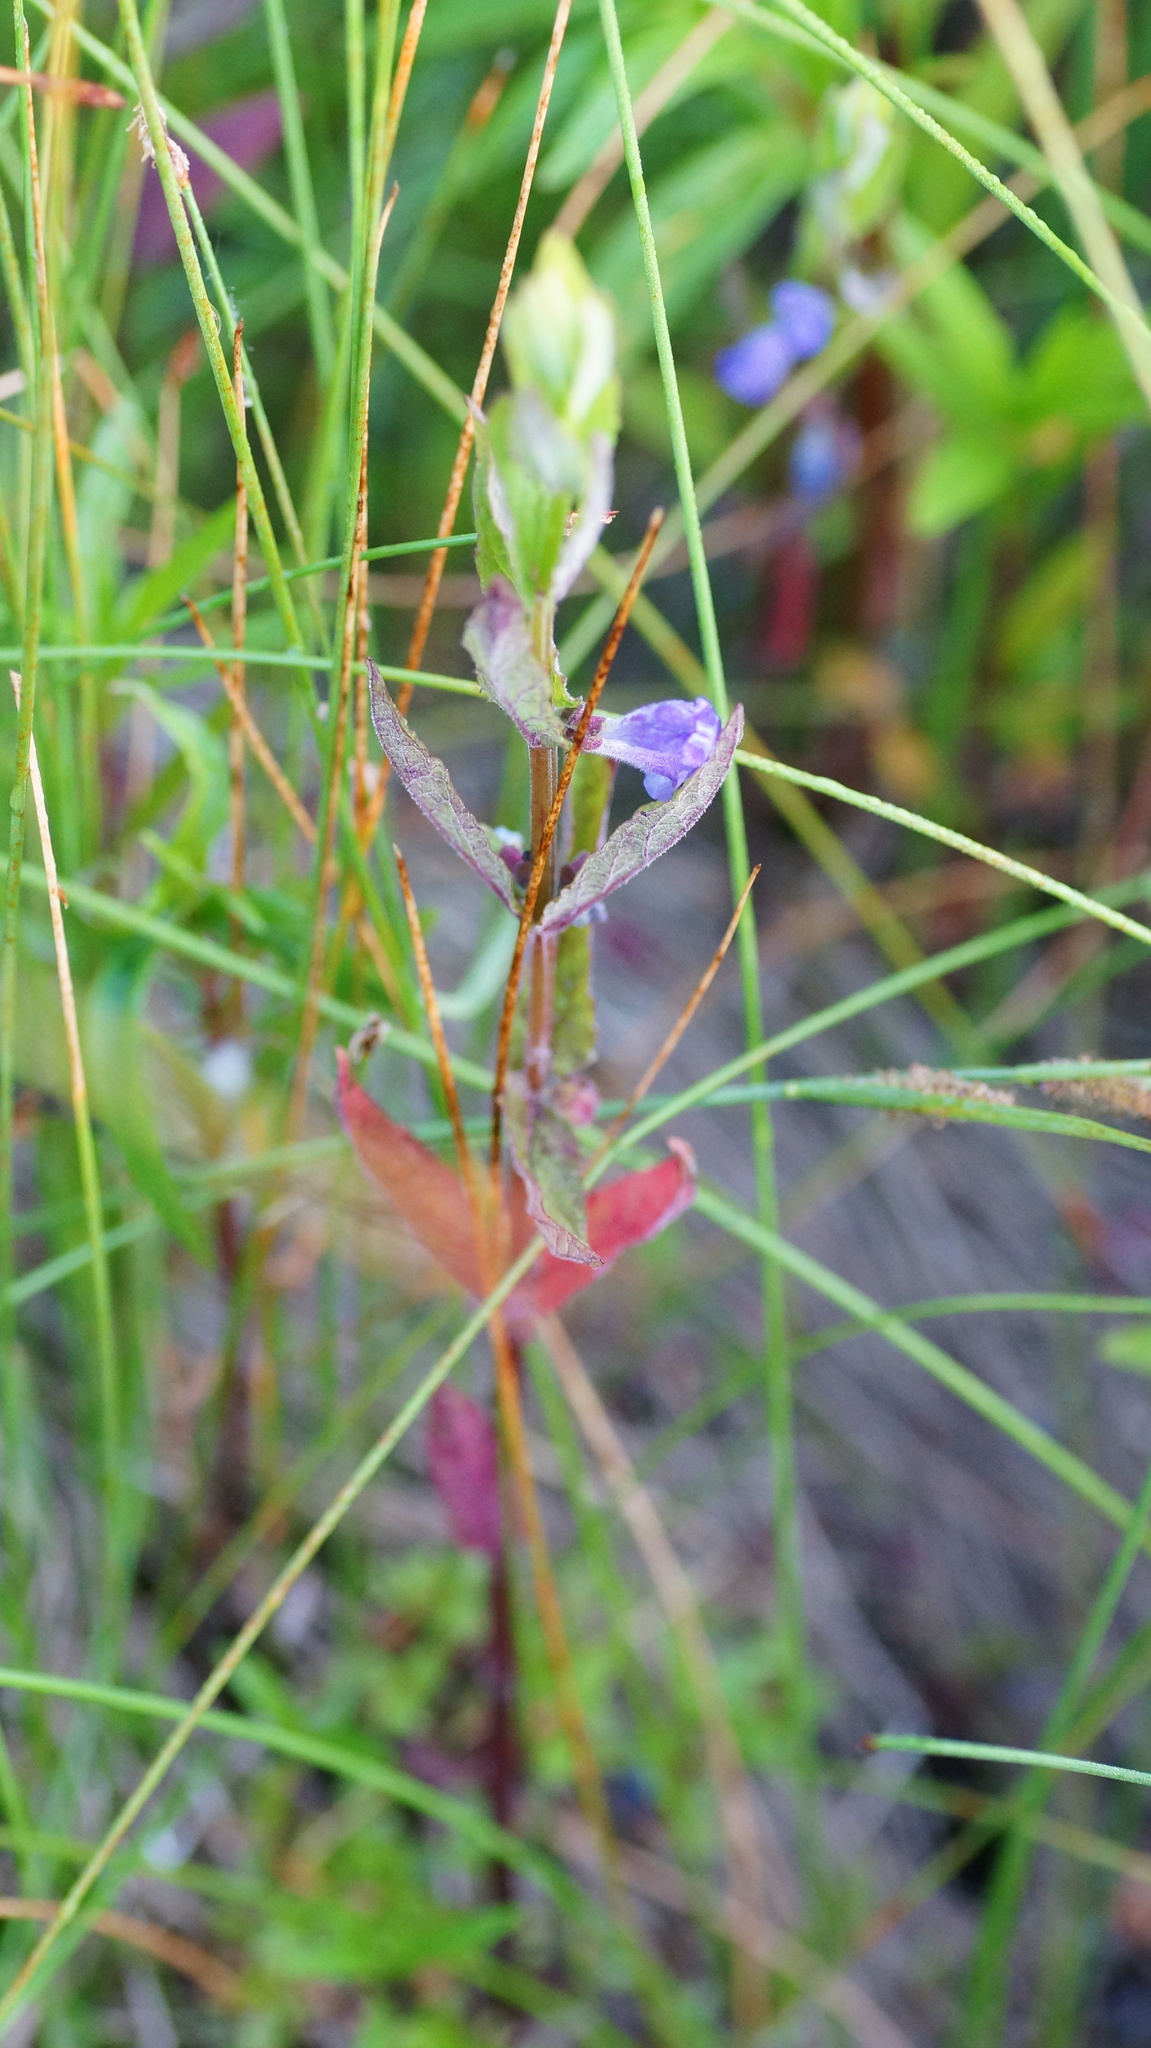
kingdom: Plantae
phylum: Tracheophyta
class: Magnoliopsida
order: Lamiales
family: Lamiaceae
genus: Scutellaria
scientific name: Scutellaria galericulata
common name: Skullcap
